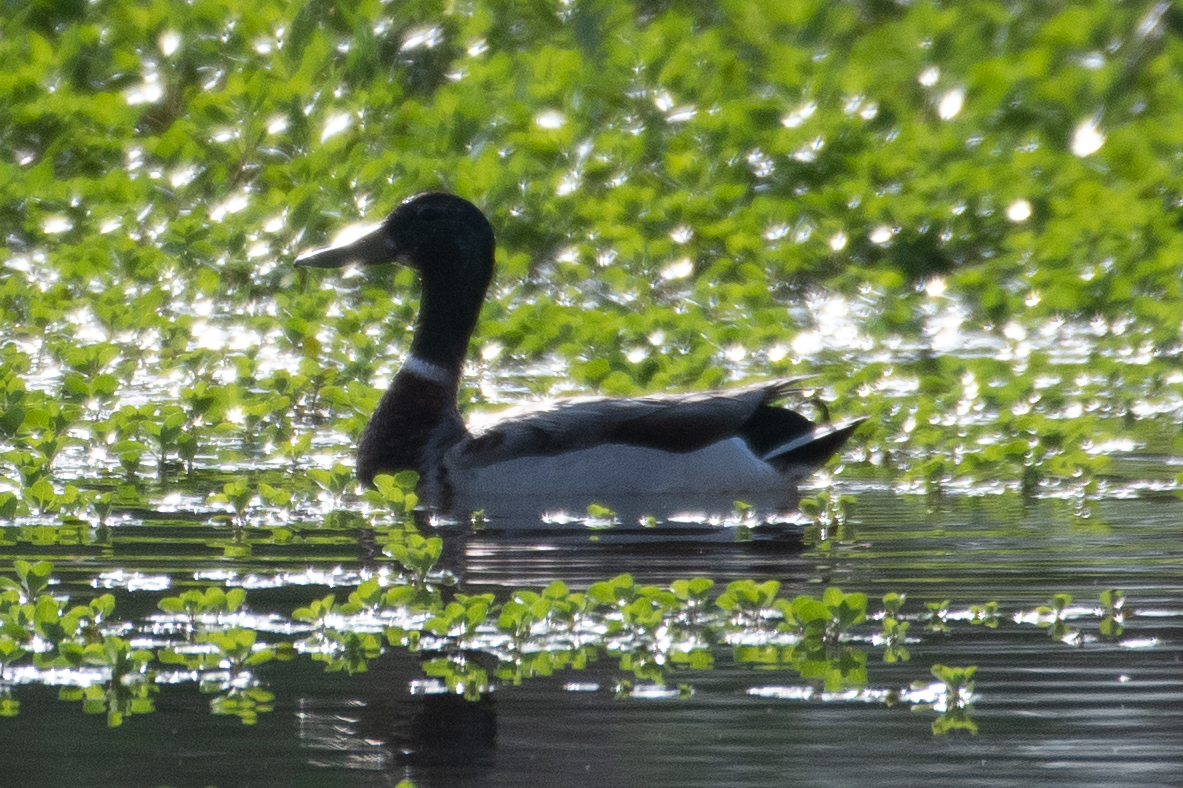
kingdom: Animalia
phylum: Chordata
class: Aves
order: Anseriformes
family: Anatidae
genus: Anas
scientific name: Anas platyrhynchos
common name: Mallard
